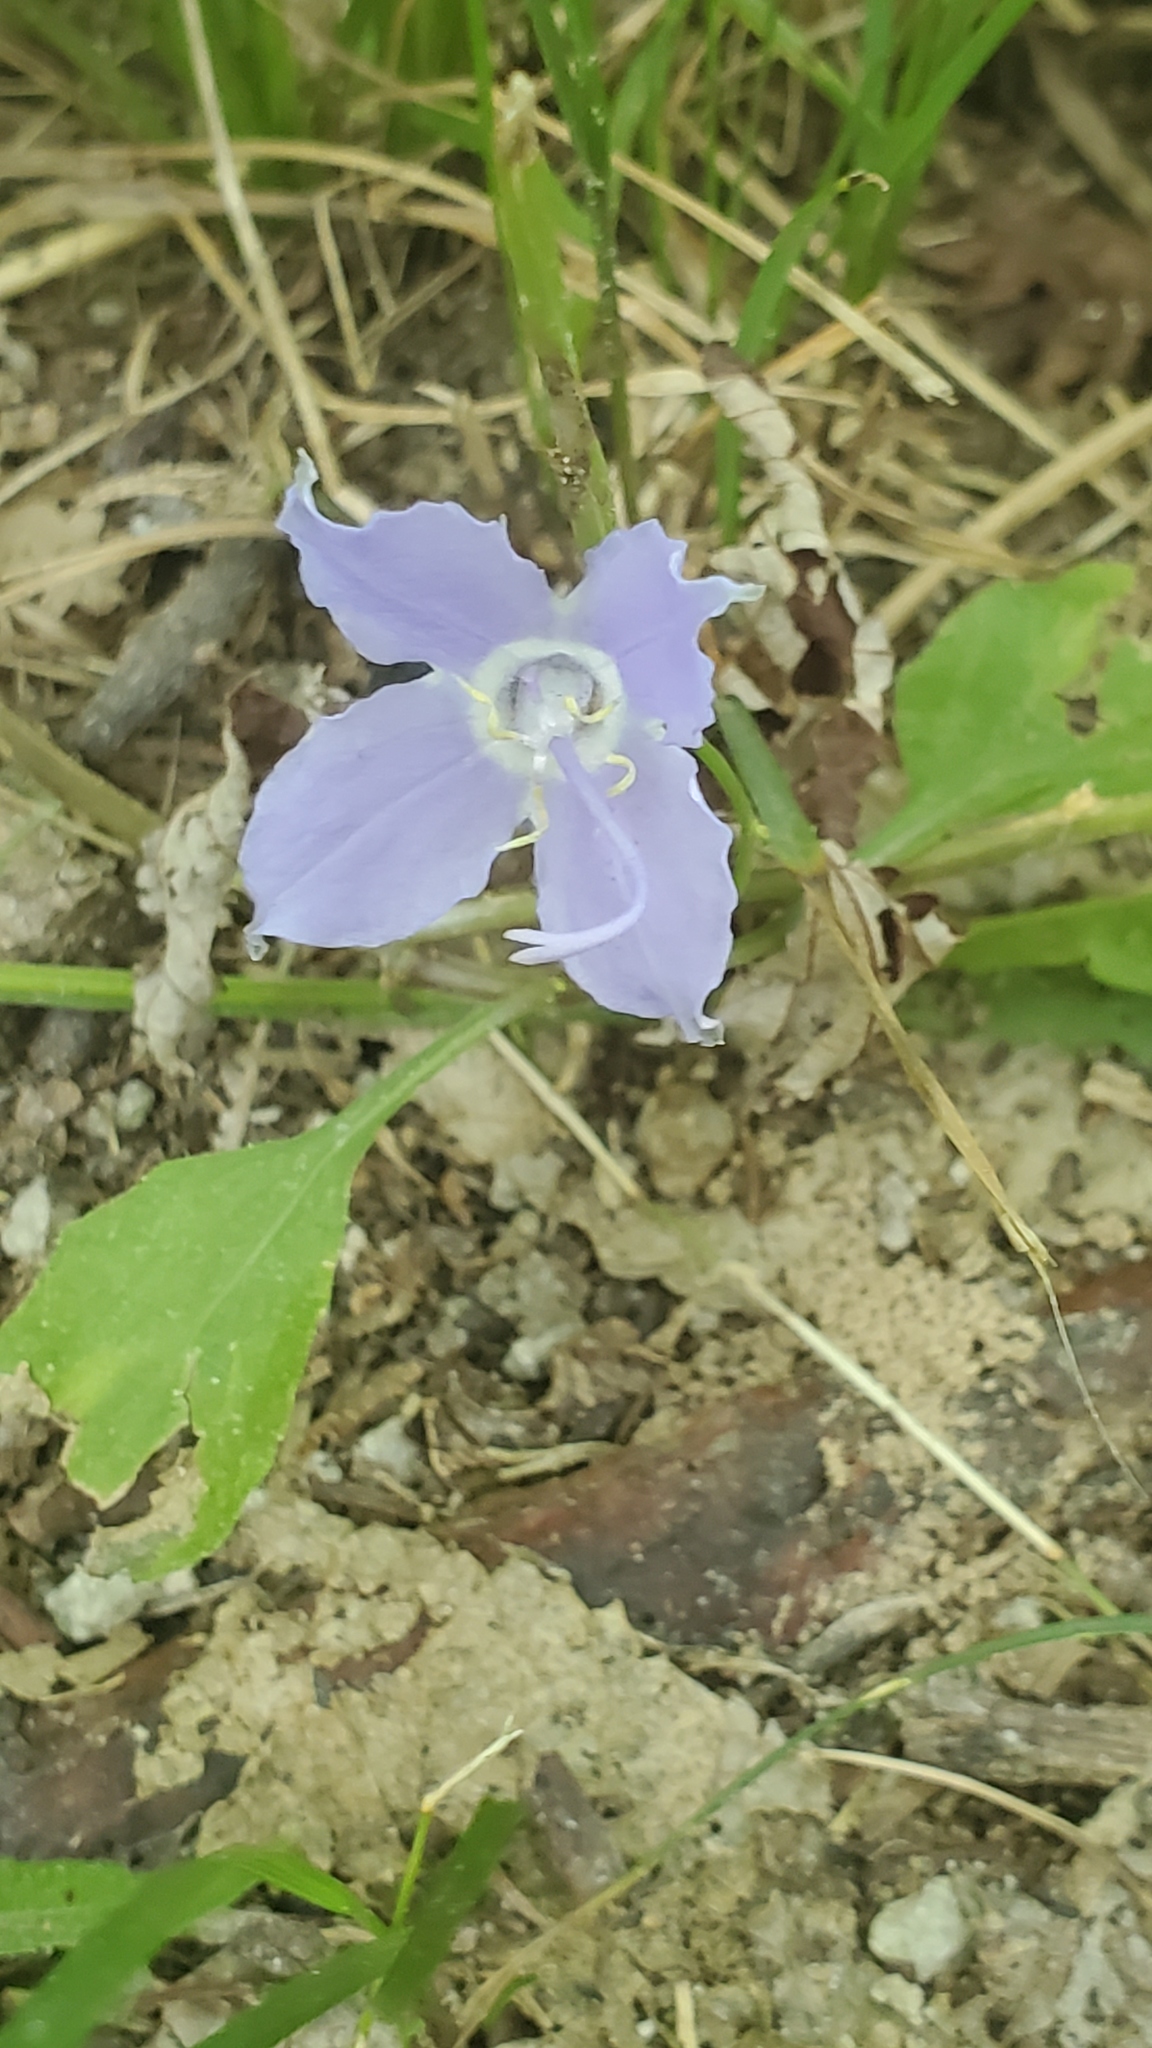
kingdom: Plantae
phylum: Tracheophyta
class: Magnoliopsida
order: Asterales
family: Campanulaceae
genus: Campanulastrum
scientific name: Campanulastrum americanum
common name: American bellflower
